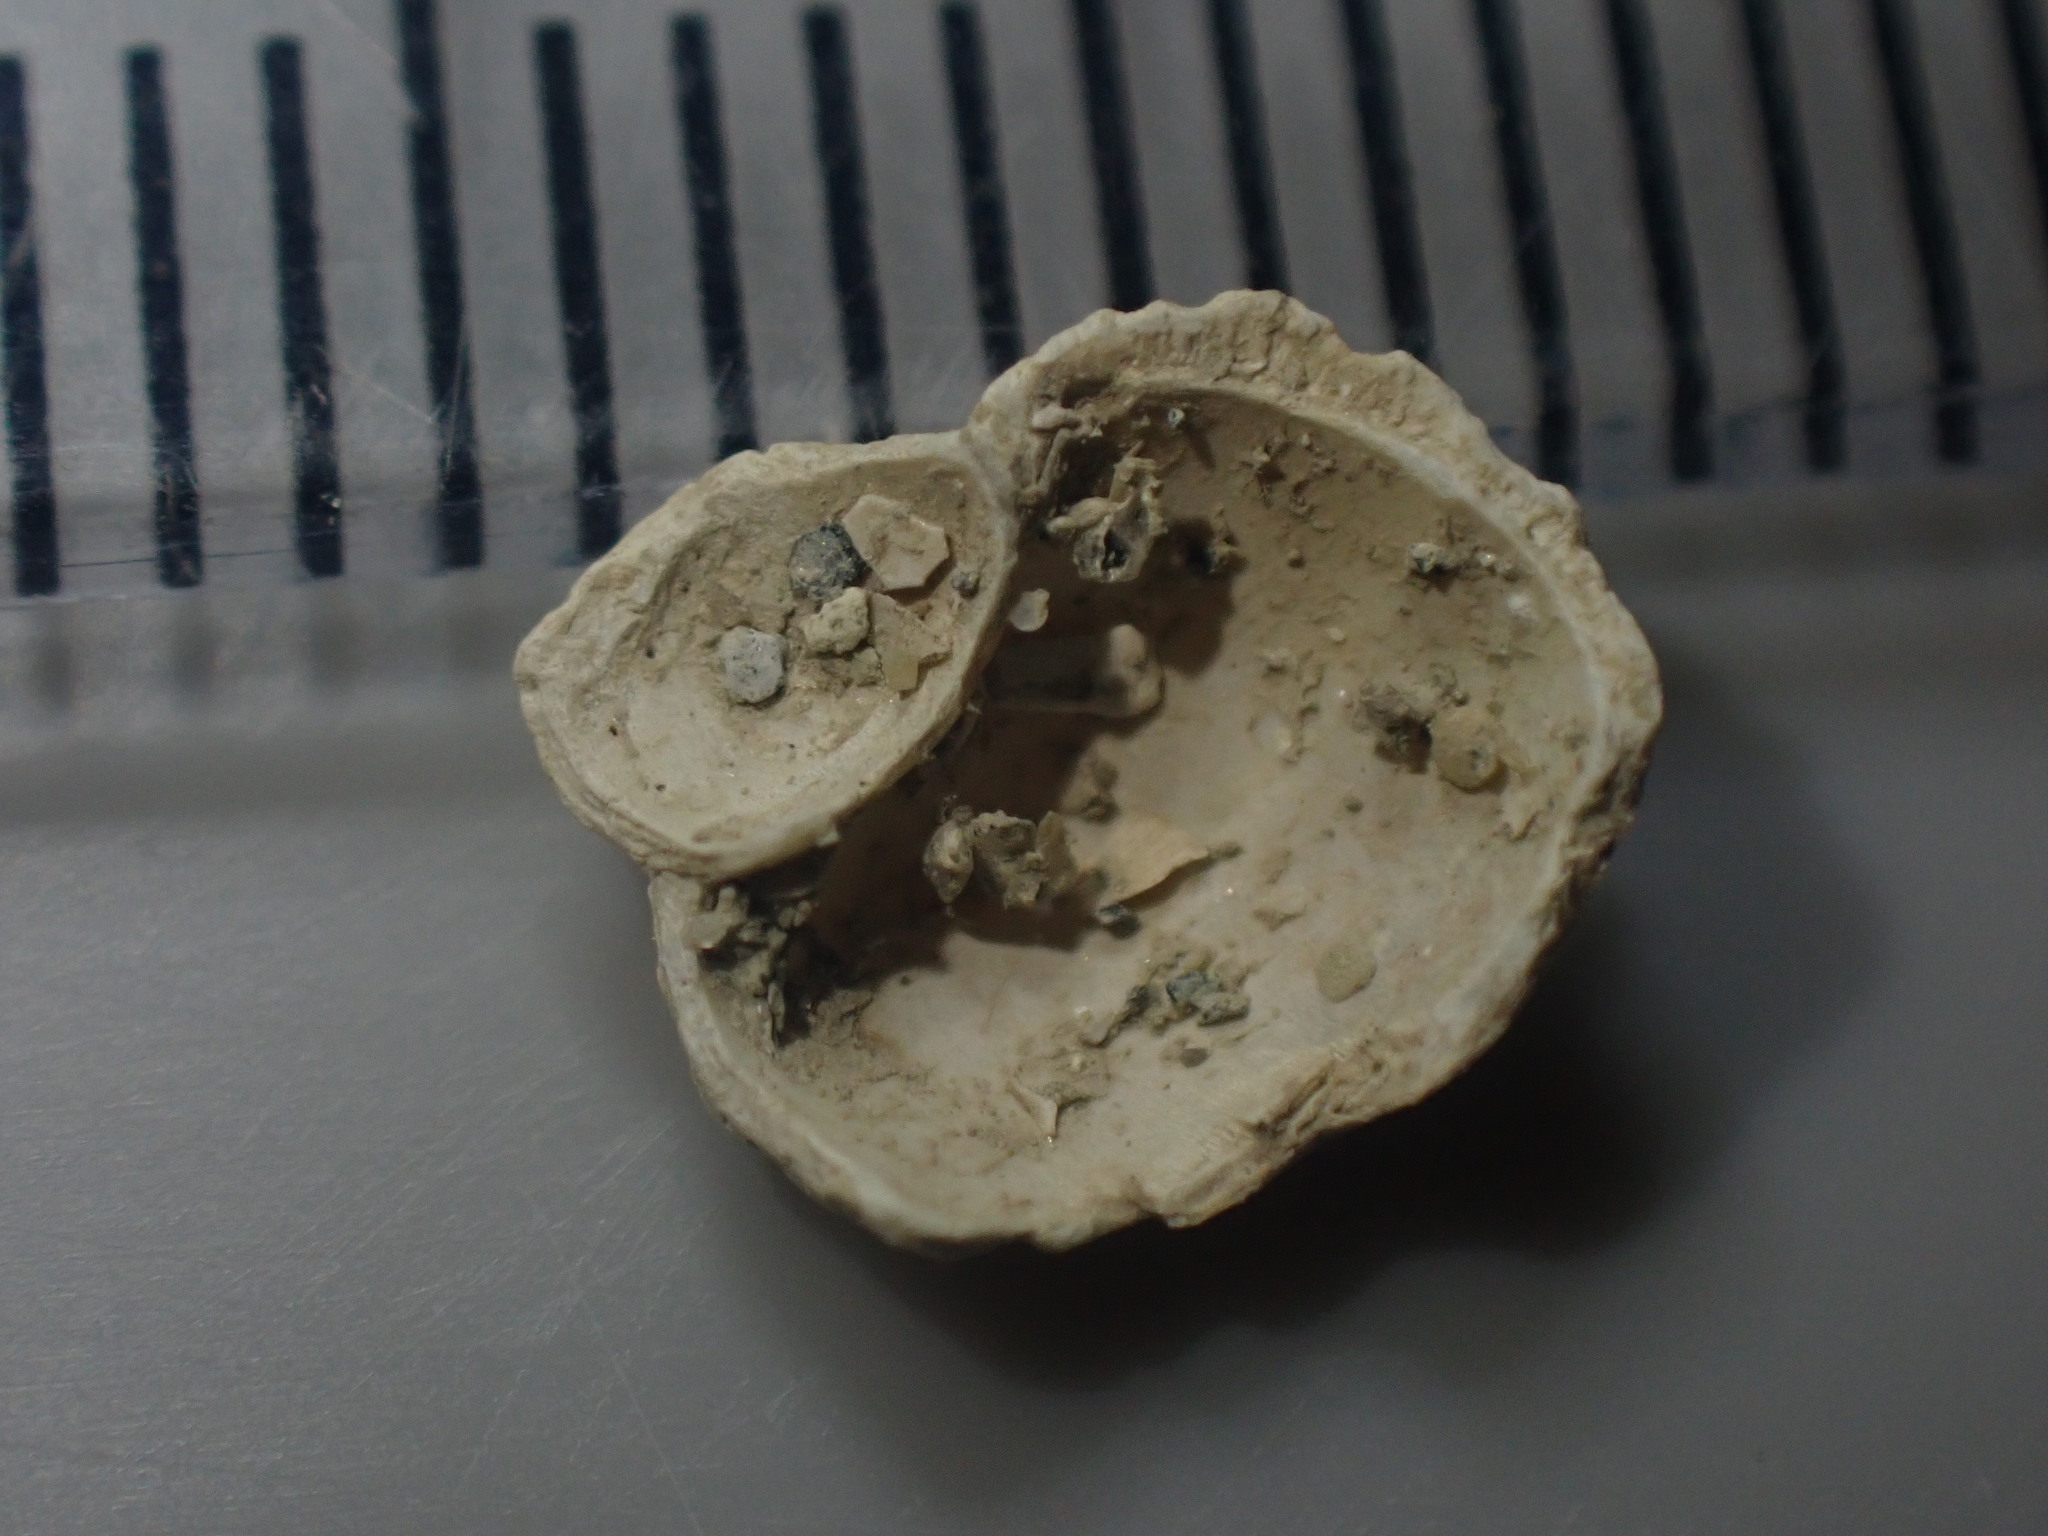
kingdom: Animalia
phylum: Mollusca
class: Gastropoda
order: Littorinimorpha
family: Struthiolariidae
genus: Pelicaria
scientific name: Pelicaria vermis
